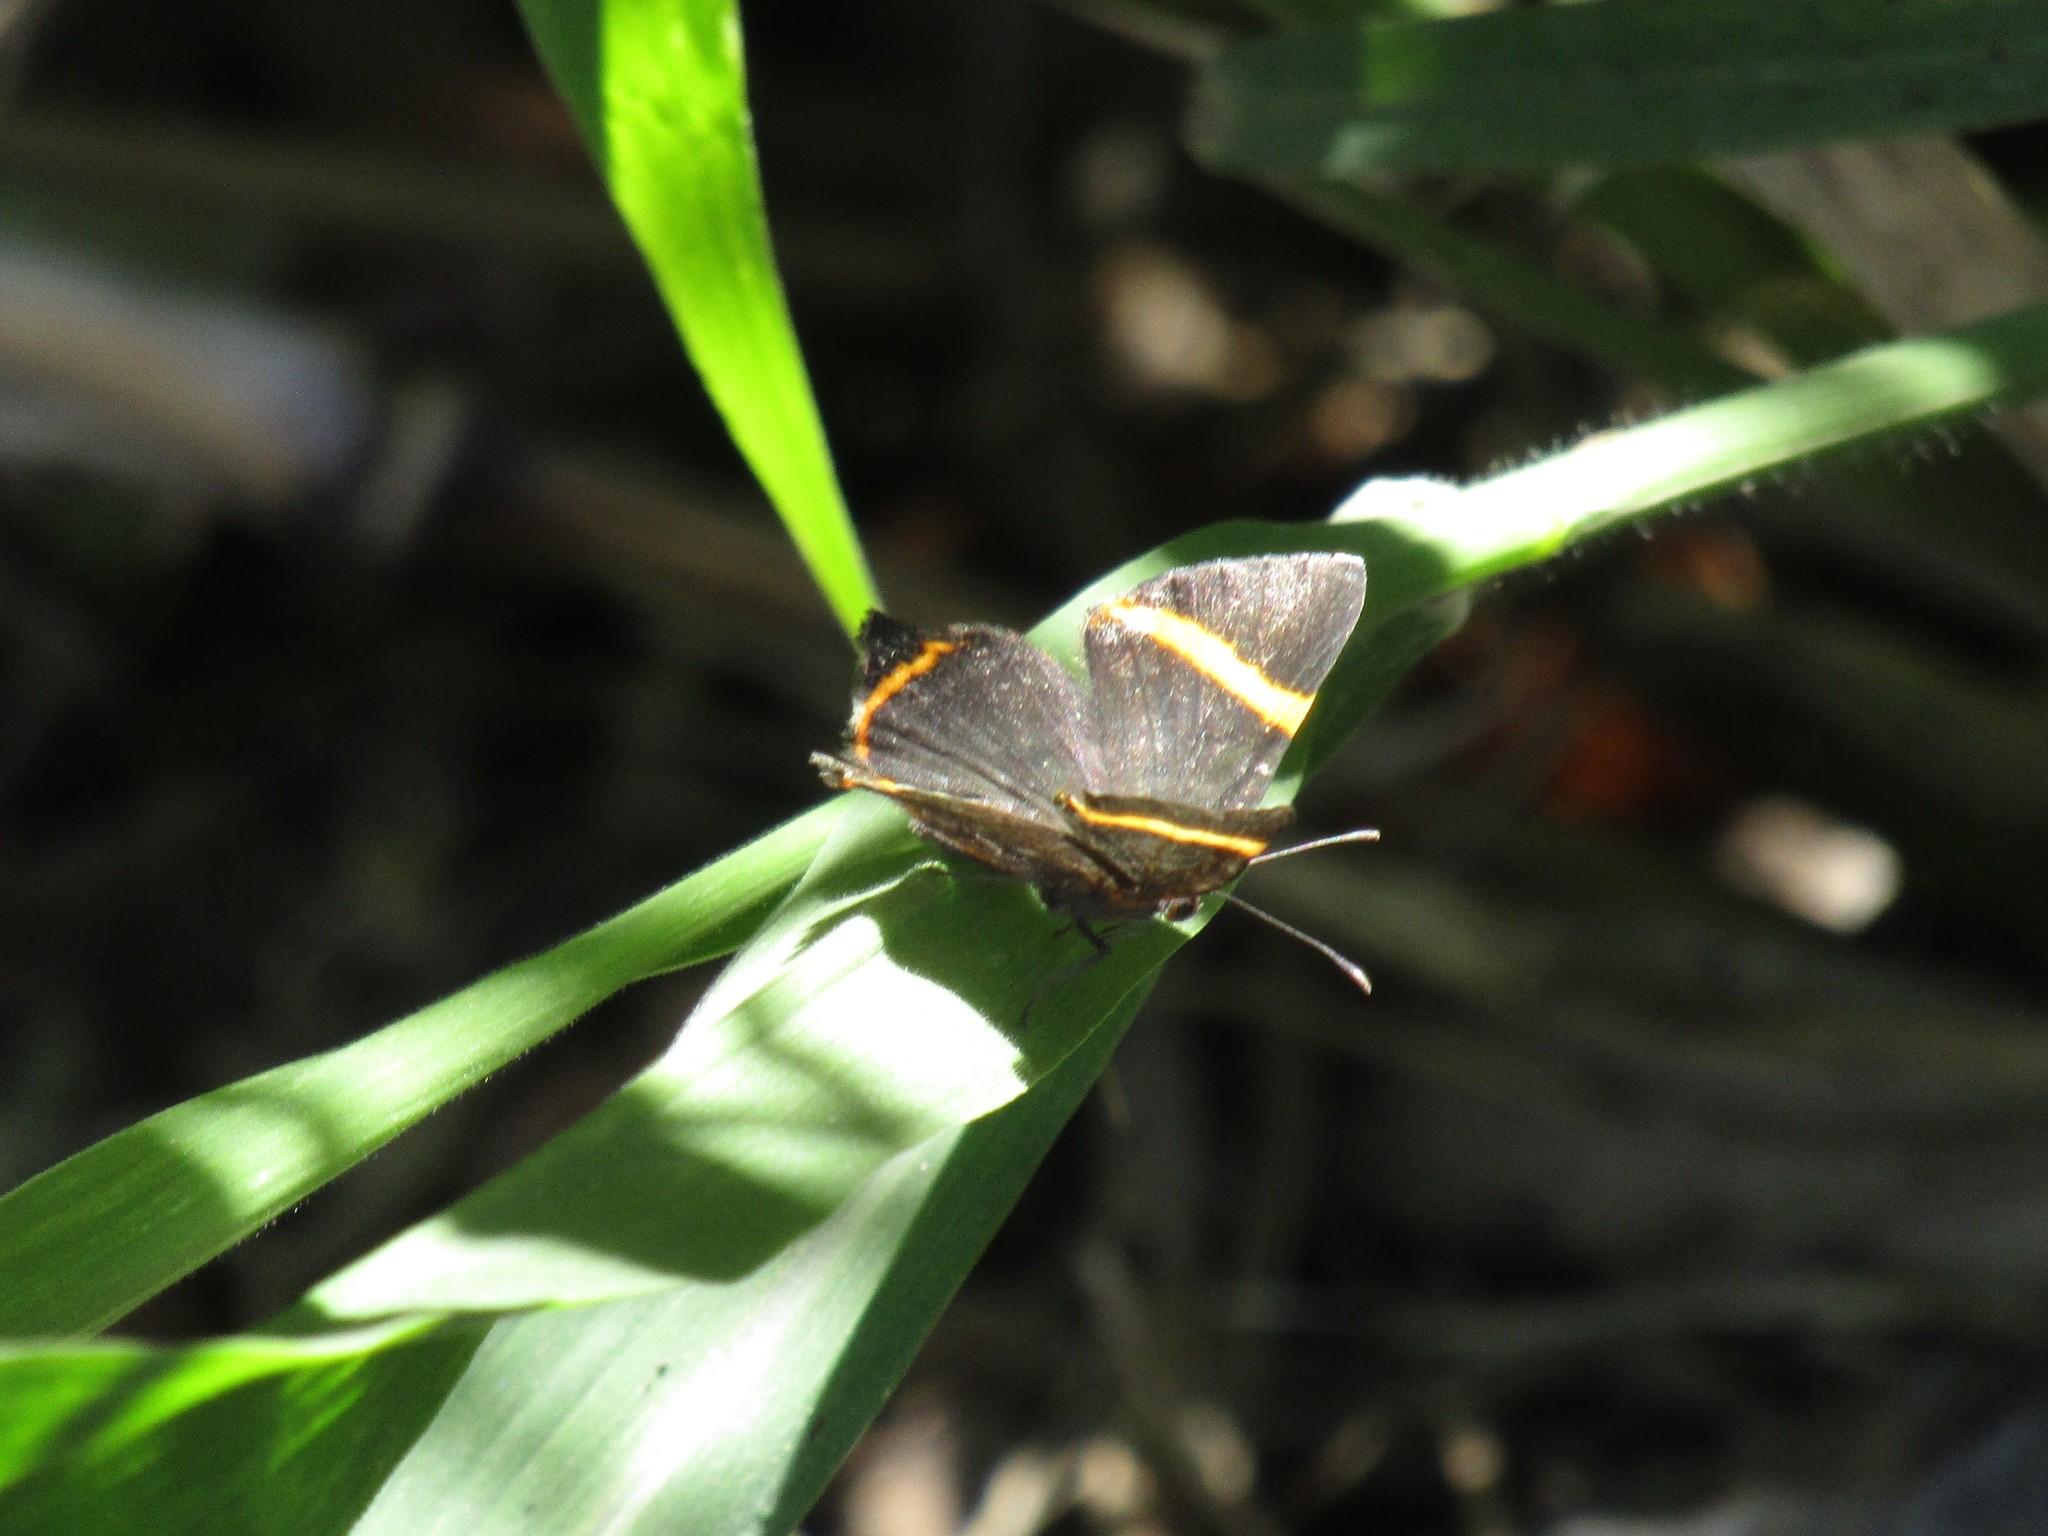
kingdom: Animalia
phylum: Arthropoda
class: Insecta
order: Lepidoptera
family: Riodinidae
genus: Riodina
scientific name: Riodina lysippoides
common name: Little dancer metalmark
